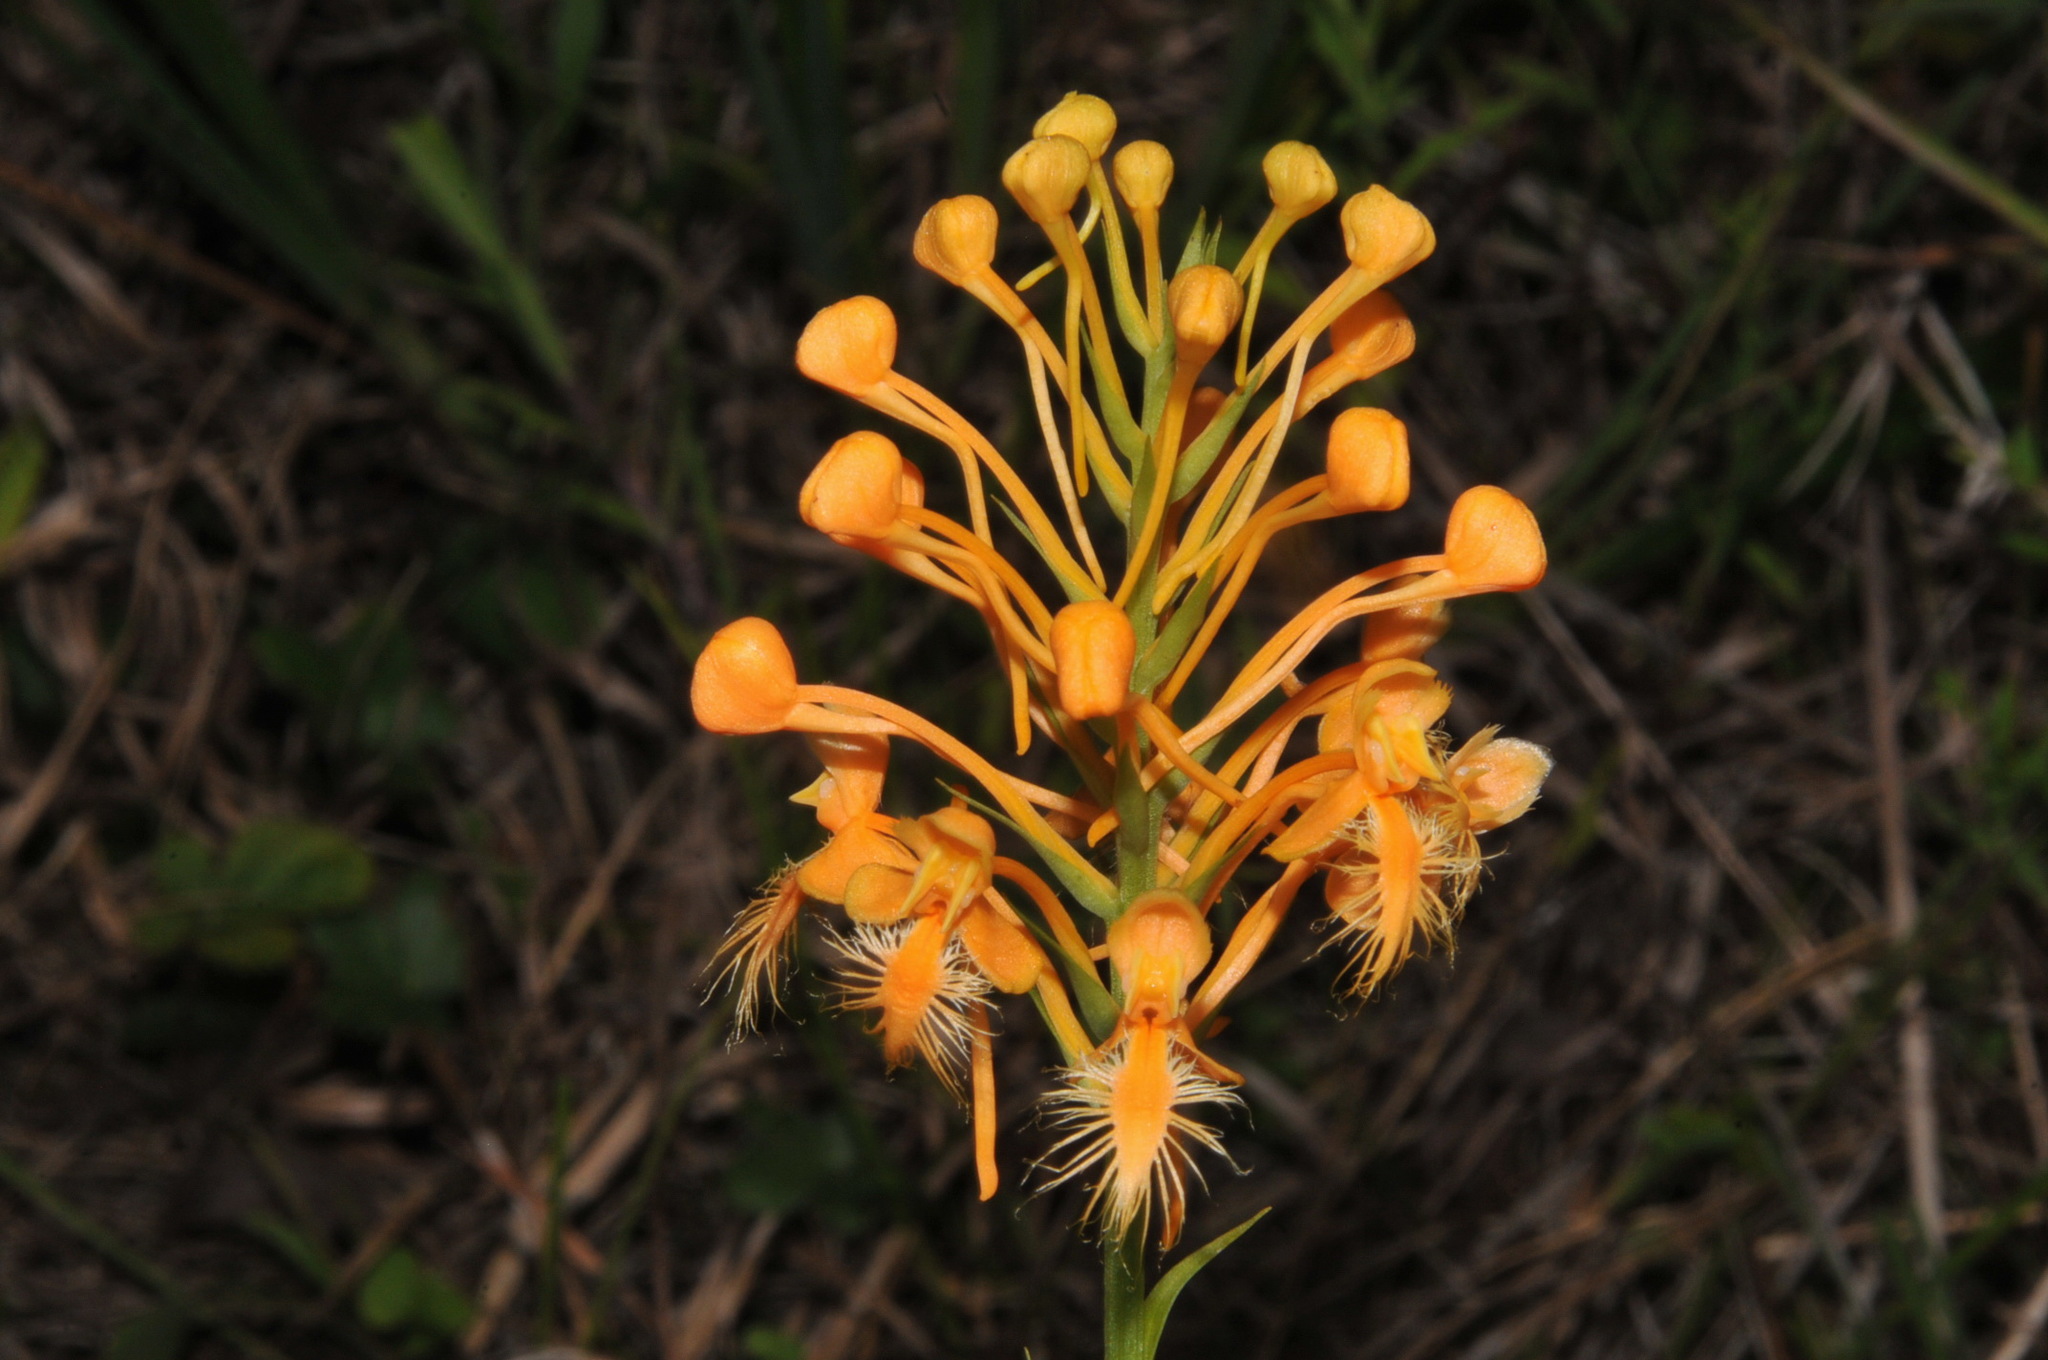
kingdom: Plantae
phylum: Tracheophyta
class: Liliopsida
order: Asparagales
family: Orchidaceae
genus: Platanthera
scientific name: Platanthera ciliaris
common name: Yellow fringed orchid
